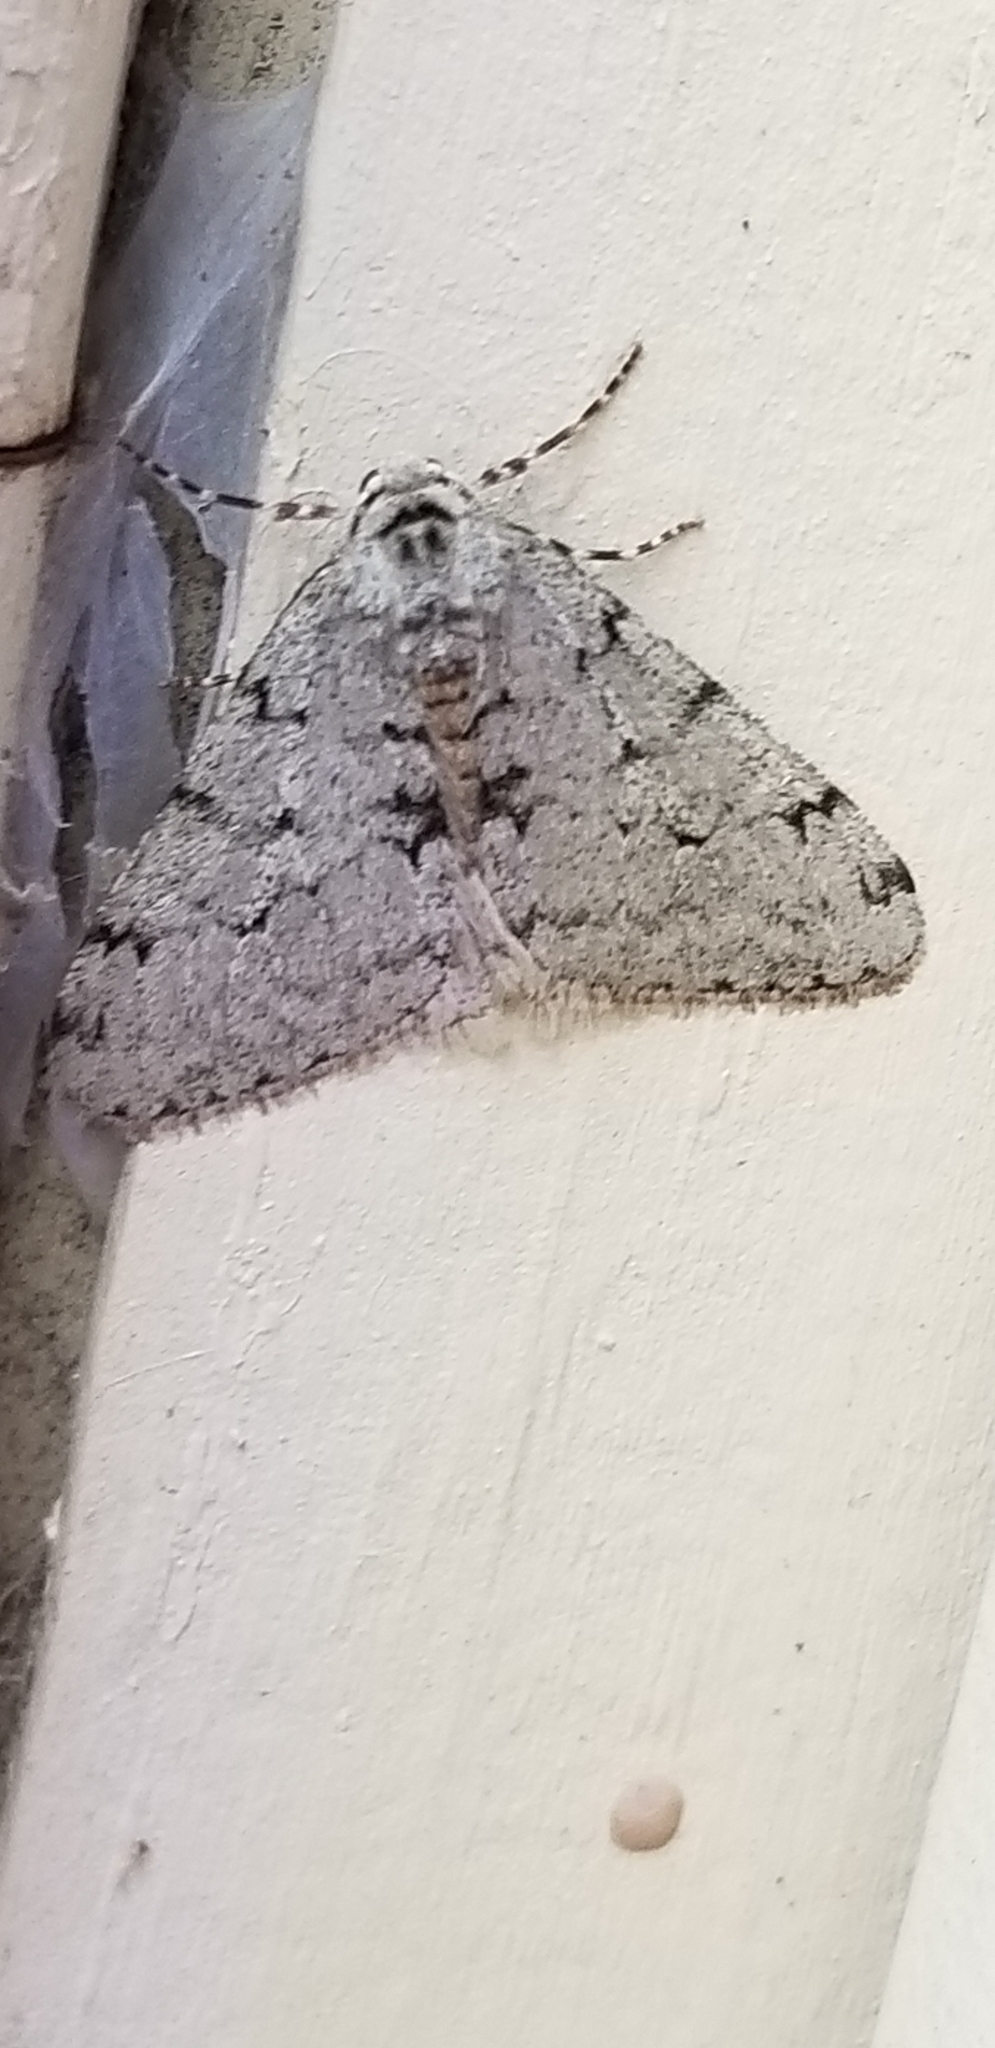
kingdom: Animalia
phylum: Arthropoda
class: Insecta
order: Lepidoptera
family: Geometridae
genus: Phigalia
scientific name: Phigalia strigataria
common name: Small phigalia
